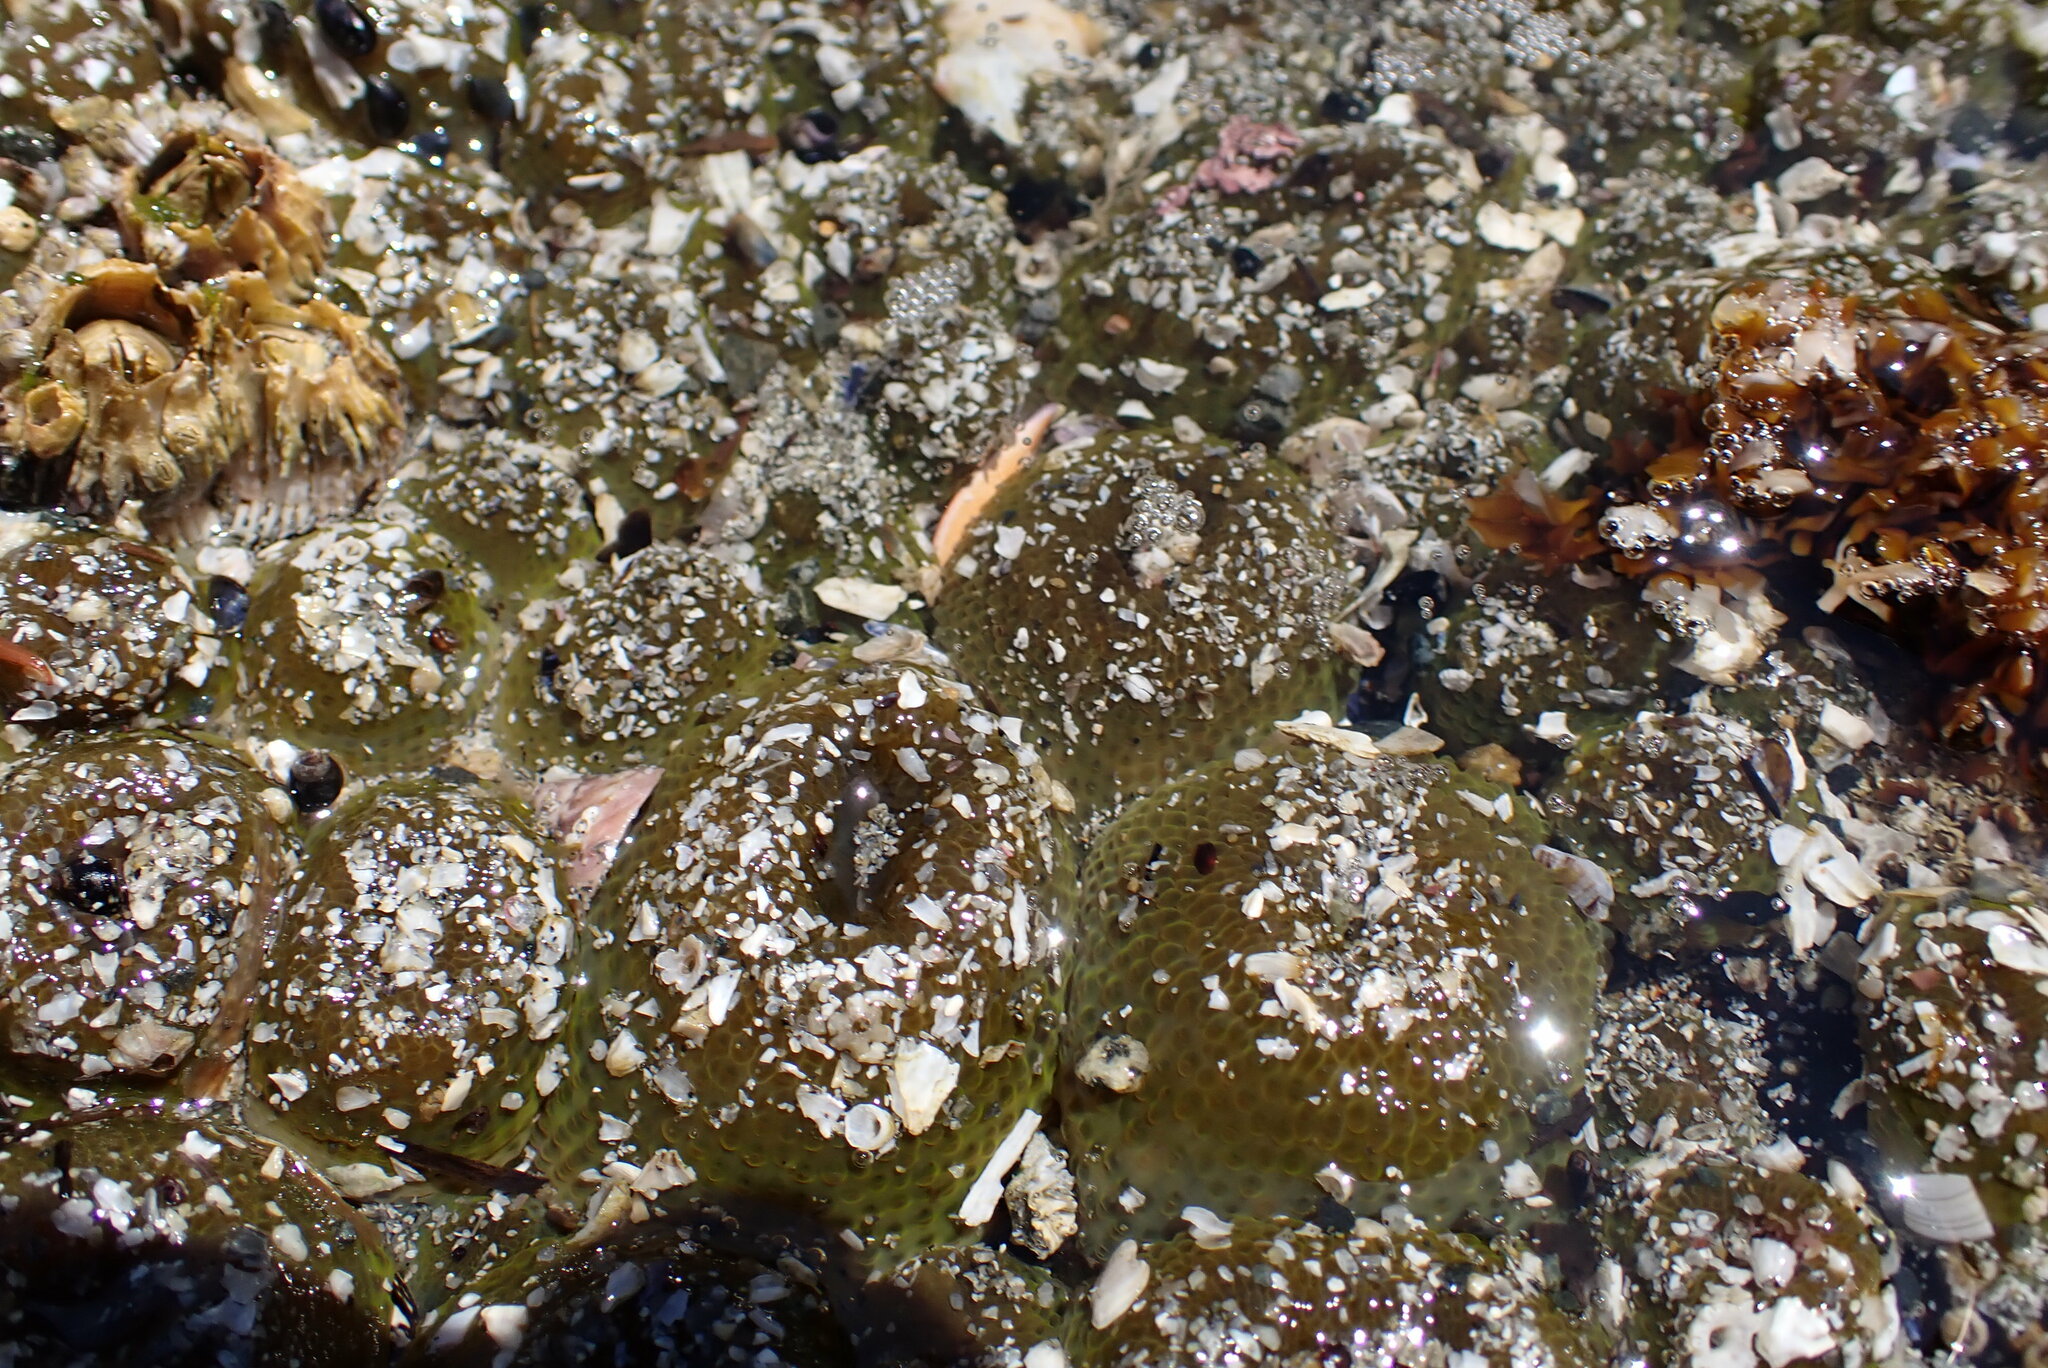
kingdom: Animalia
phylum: Cnidaria
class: Anthozoa
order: Actiniaria
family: Actiniidae
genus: Anthopleura
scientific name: Anthopleura elegantissima
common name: Clonal anemone
